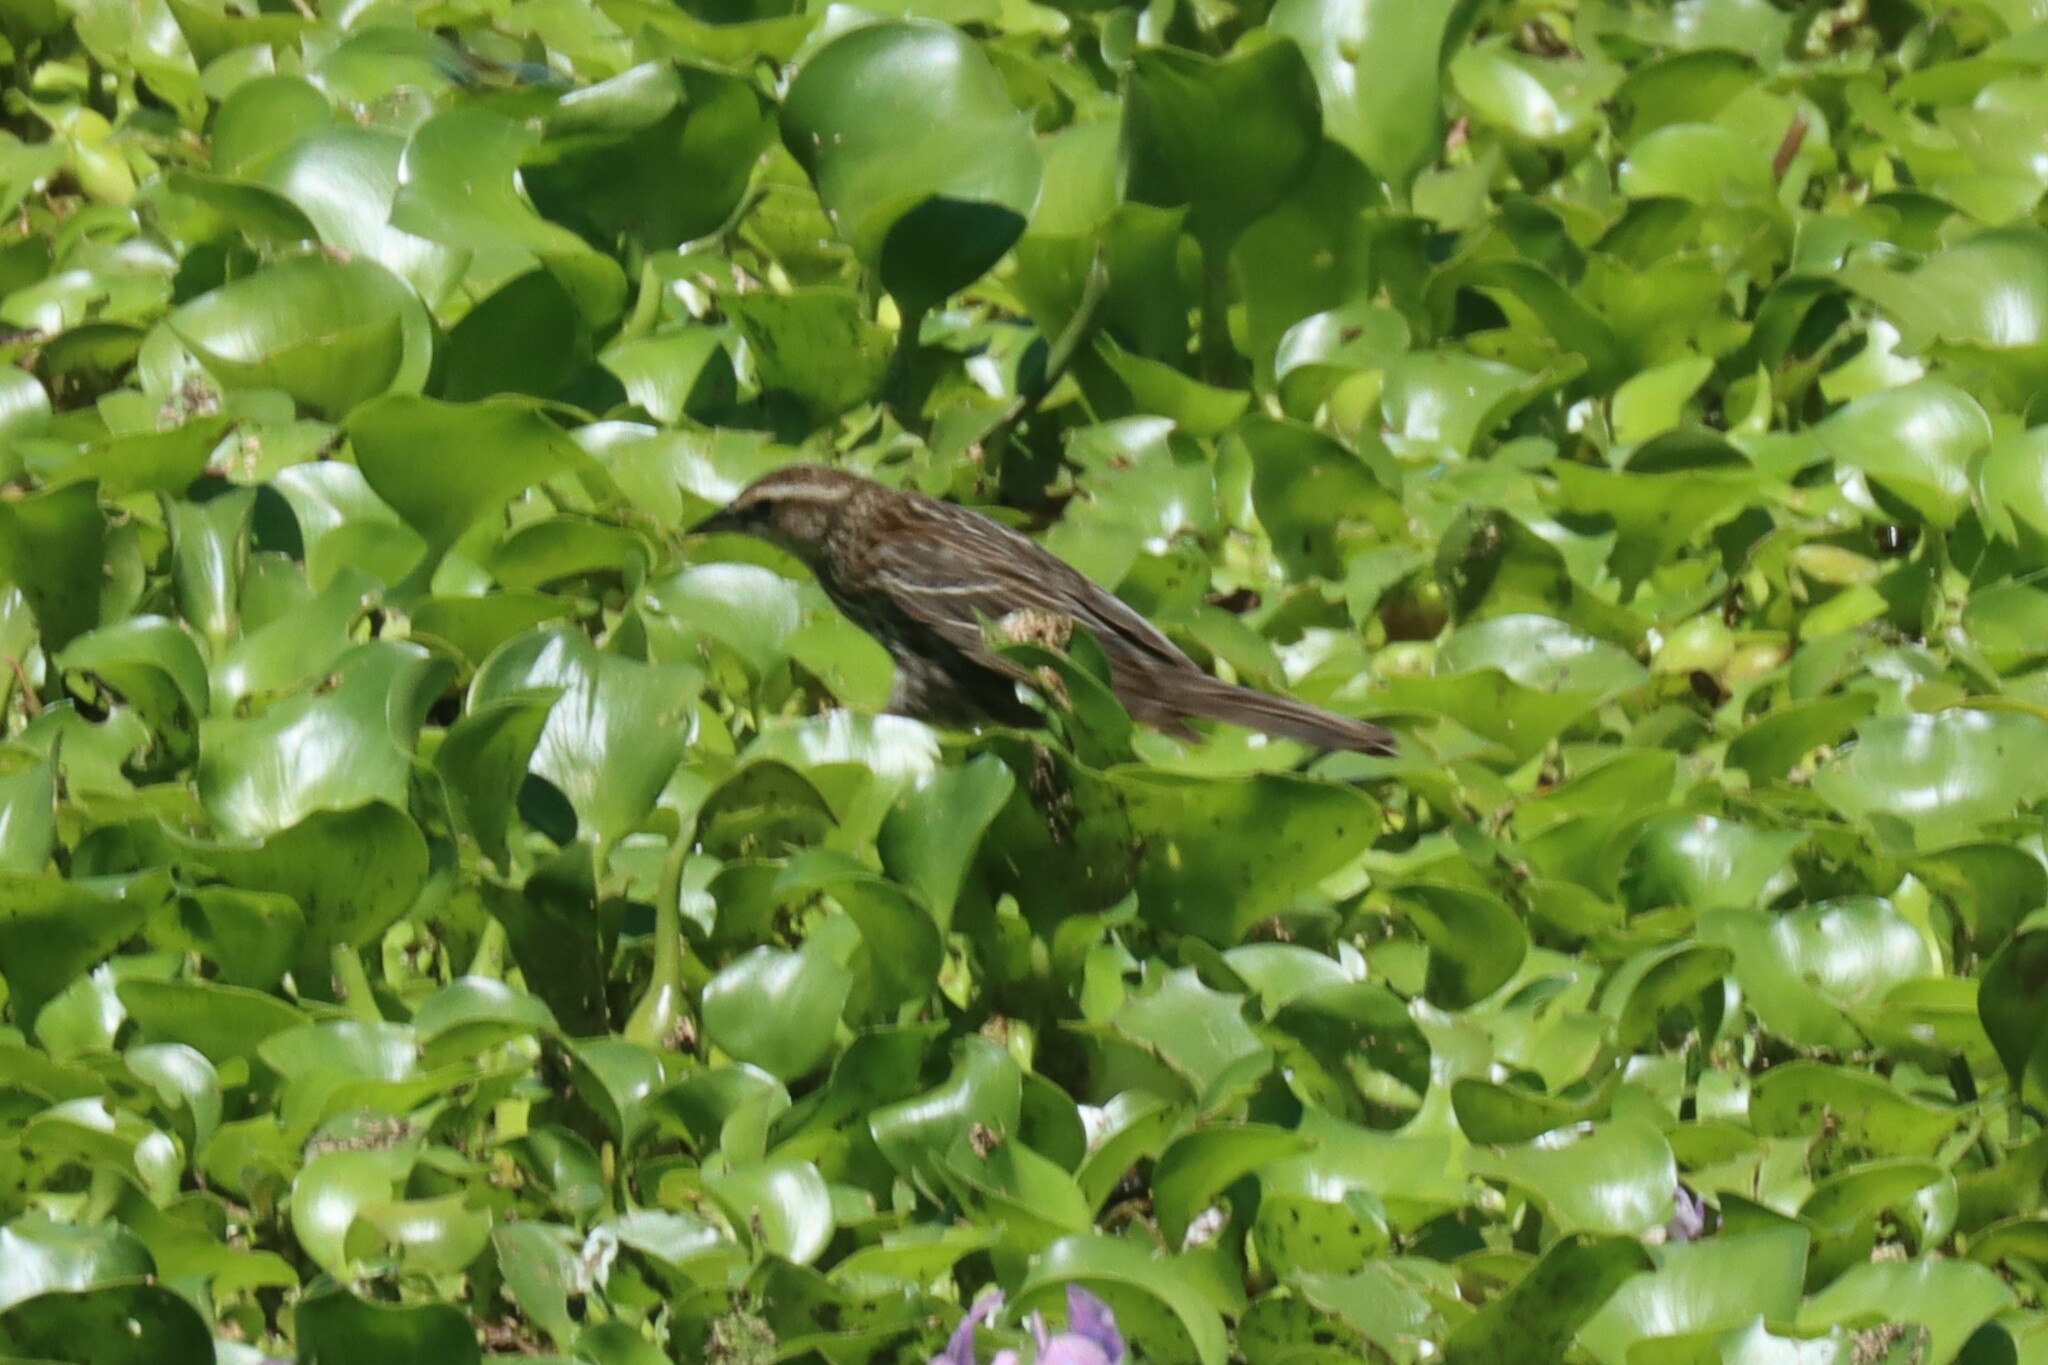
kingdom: Animalia
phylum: Chordata
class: Aves
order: Passeriformes
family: Icteridae
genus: Agelaius
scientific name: Agelaius phoeniceus
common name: Red-winged blackbird
